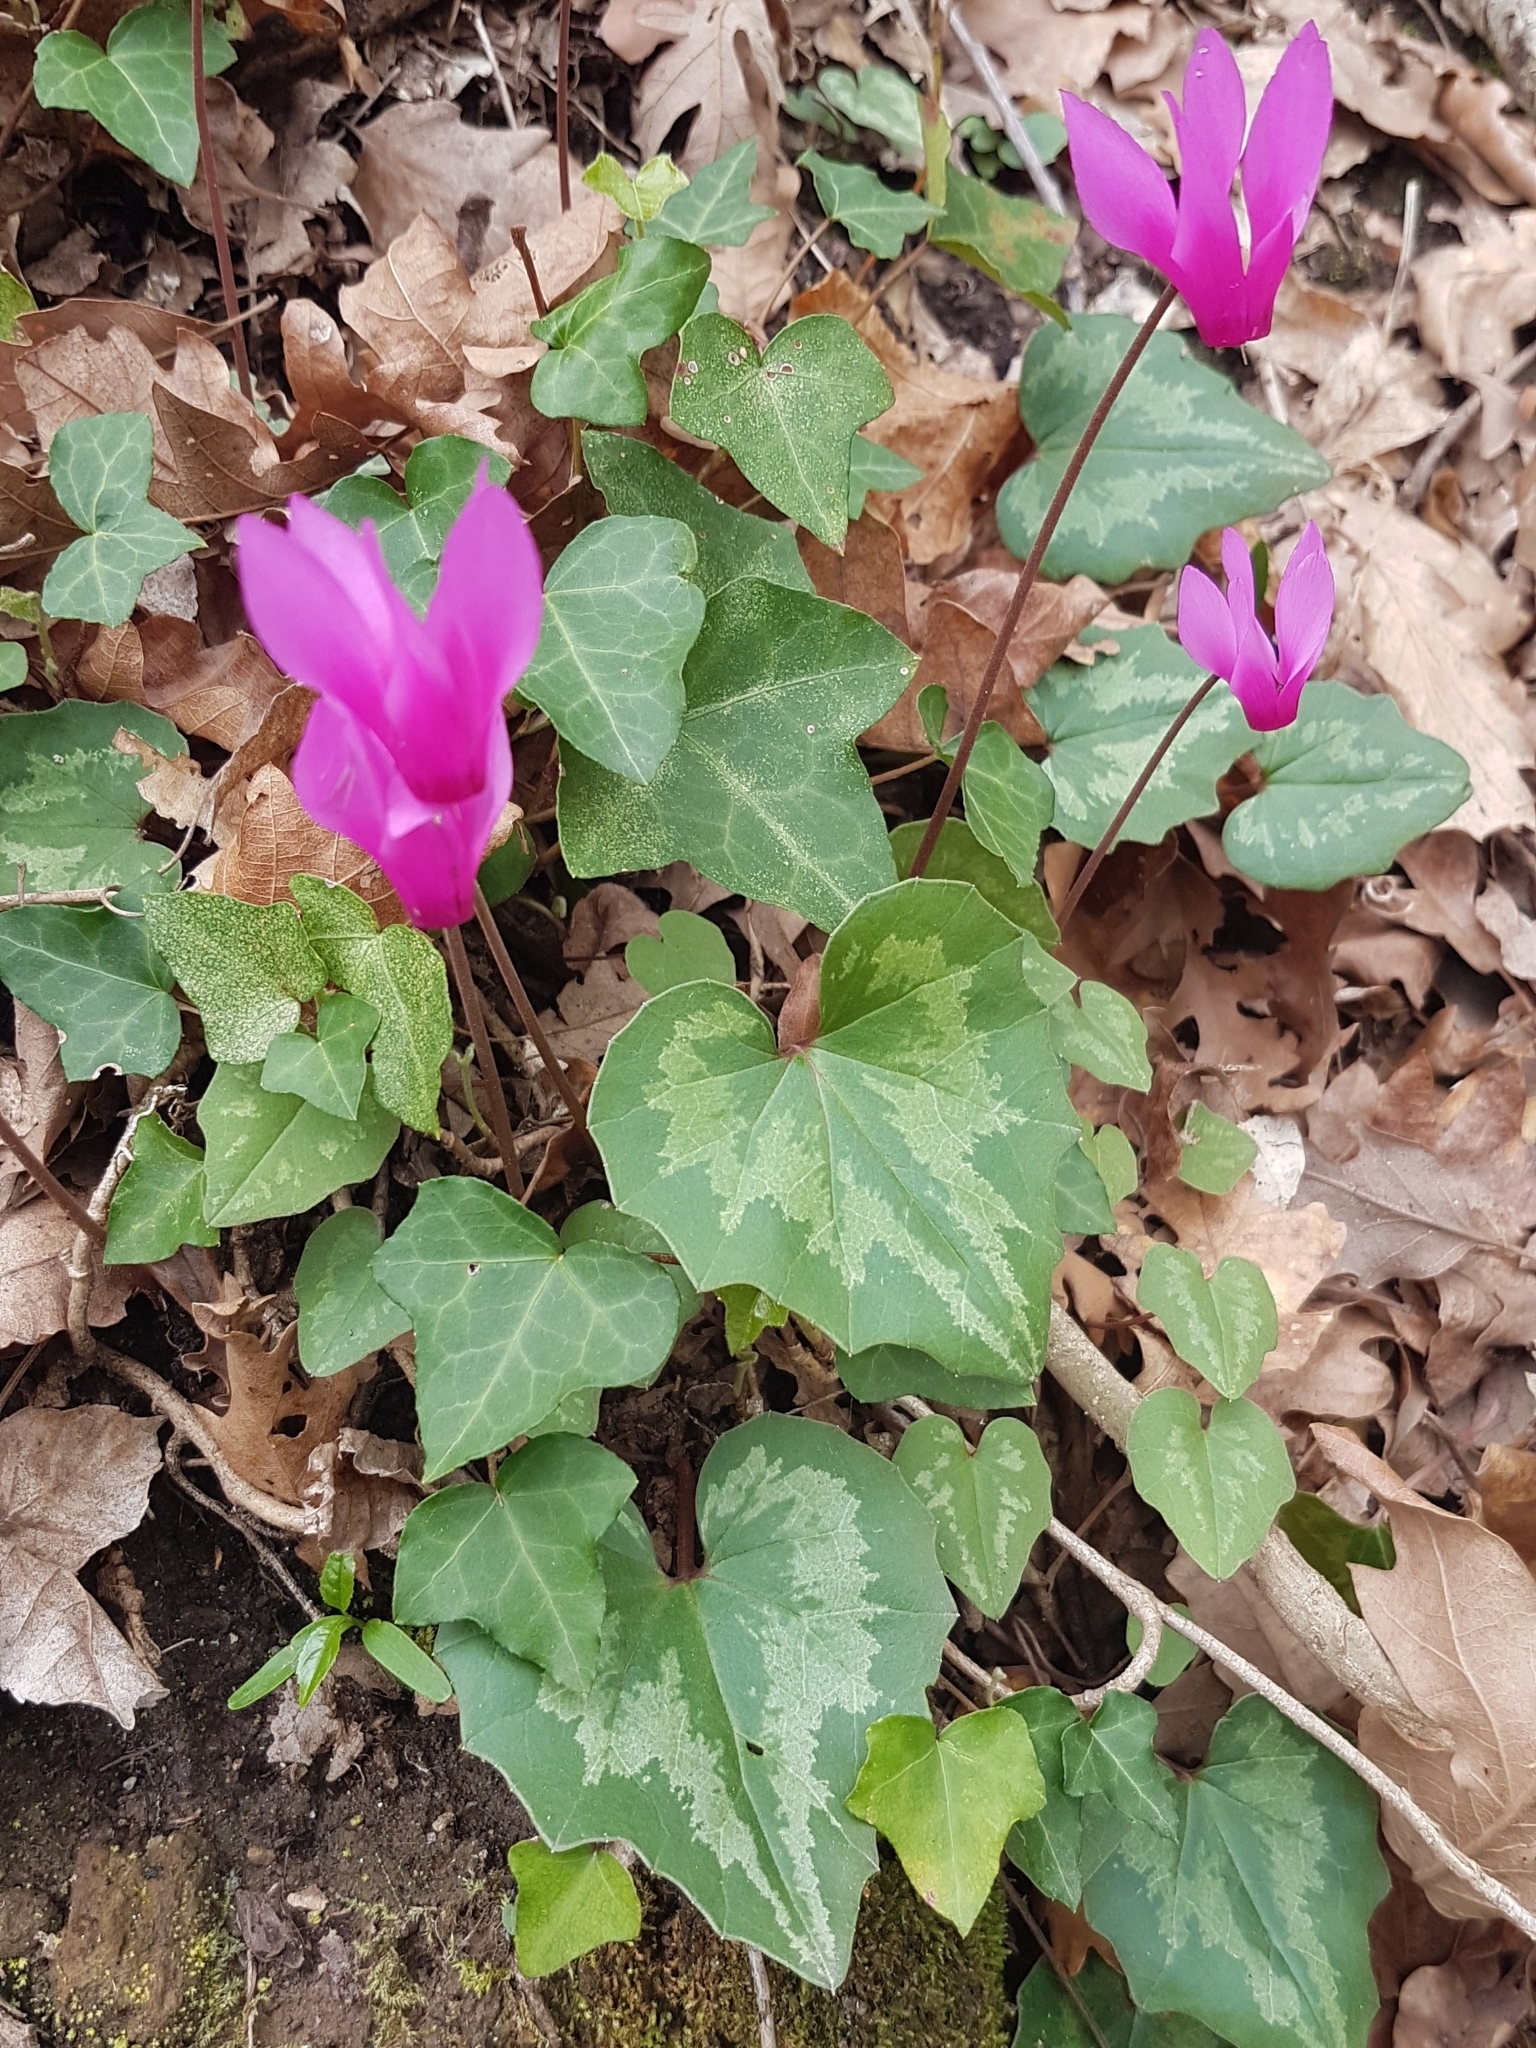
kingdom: Plantae
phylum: Tracheophyta
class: Magnoliopsida
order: Ericales
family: Primulaceae
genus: Cyclamen
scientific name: Cyclamen repandum
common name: Spring sowbread
